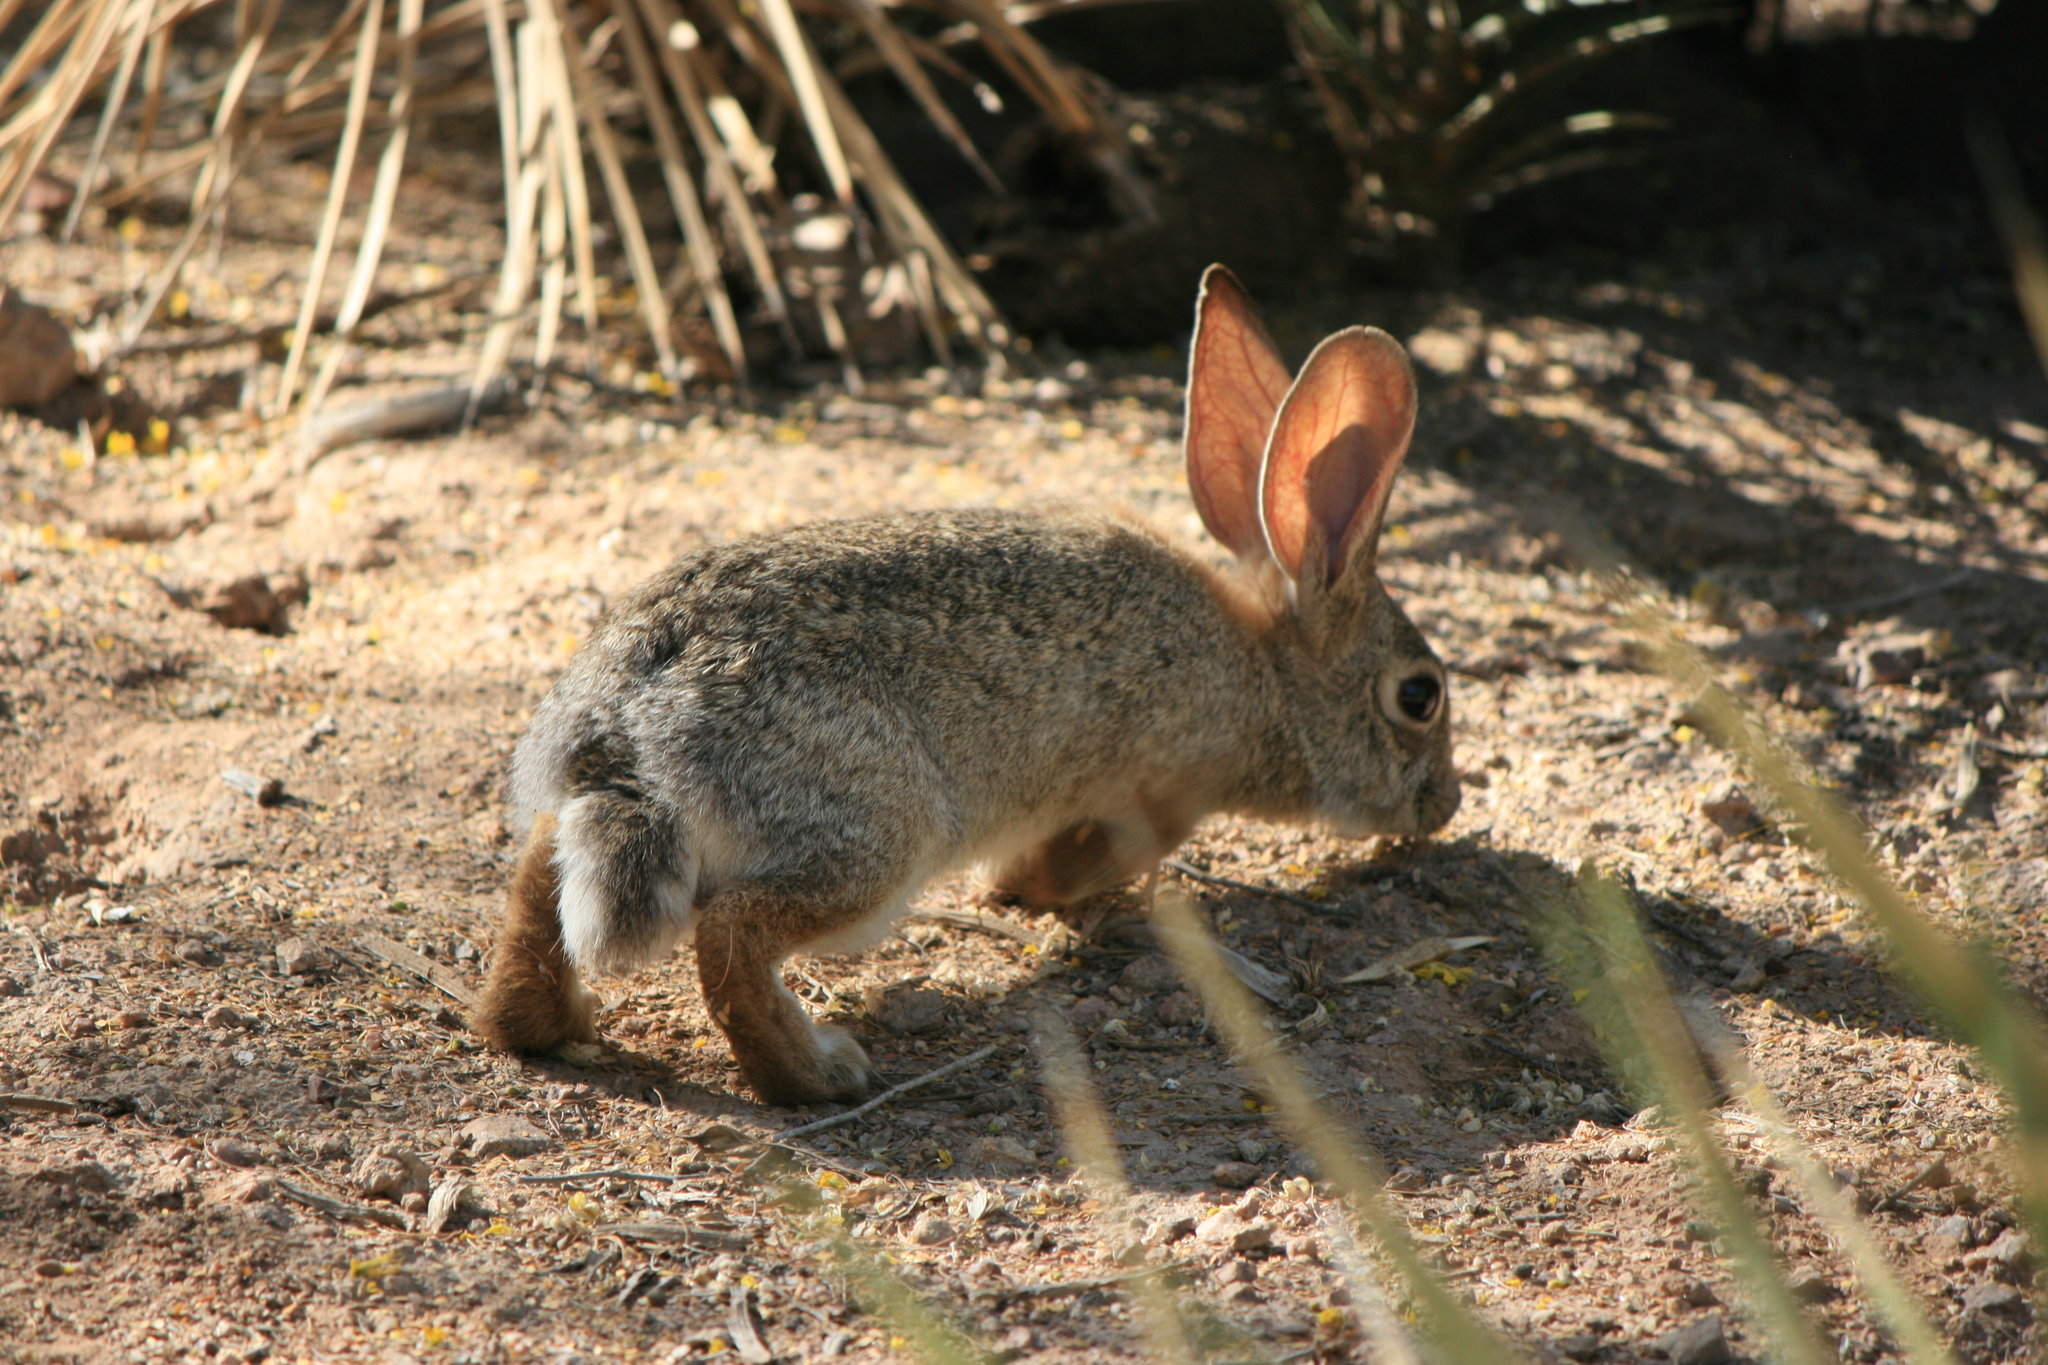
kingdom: Animalia
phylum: Chordata
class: Mammalia
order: Lagomorpha
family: Leporidae
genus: Sylvilagus
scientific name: Sylvilagus audubonii
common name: Desert cottontail
